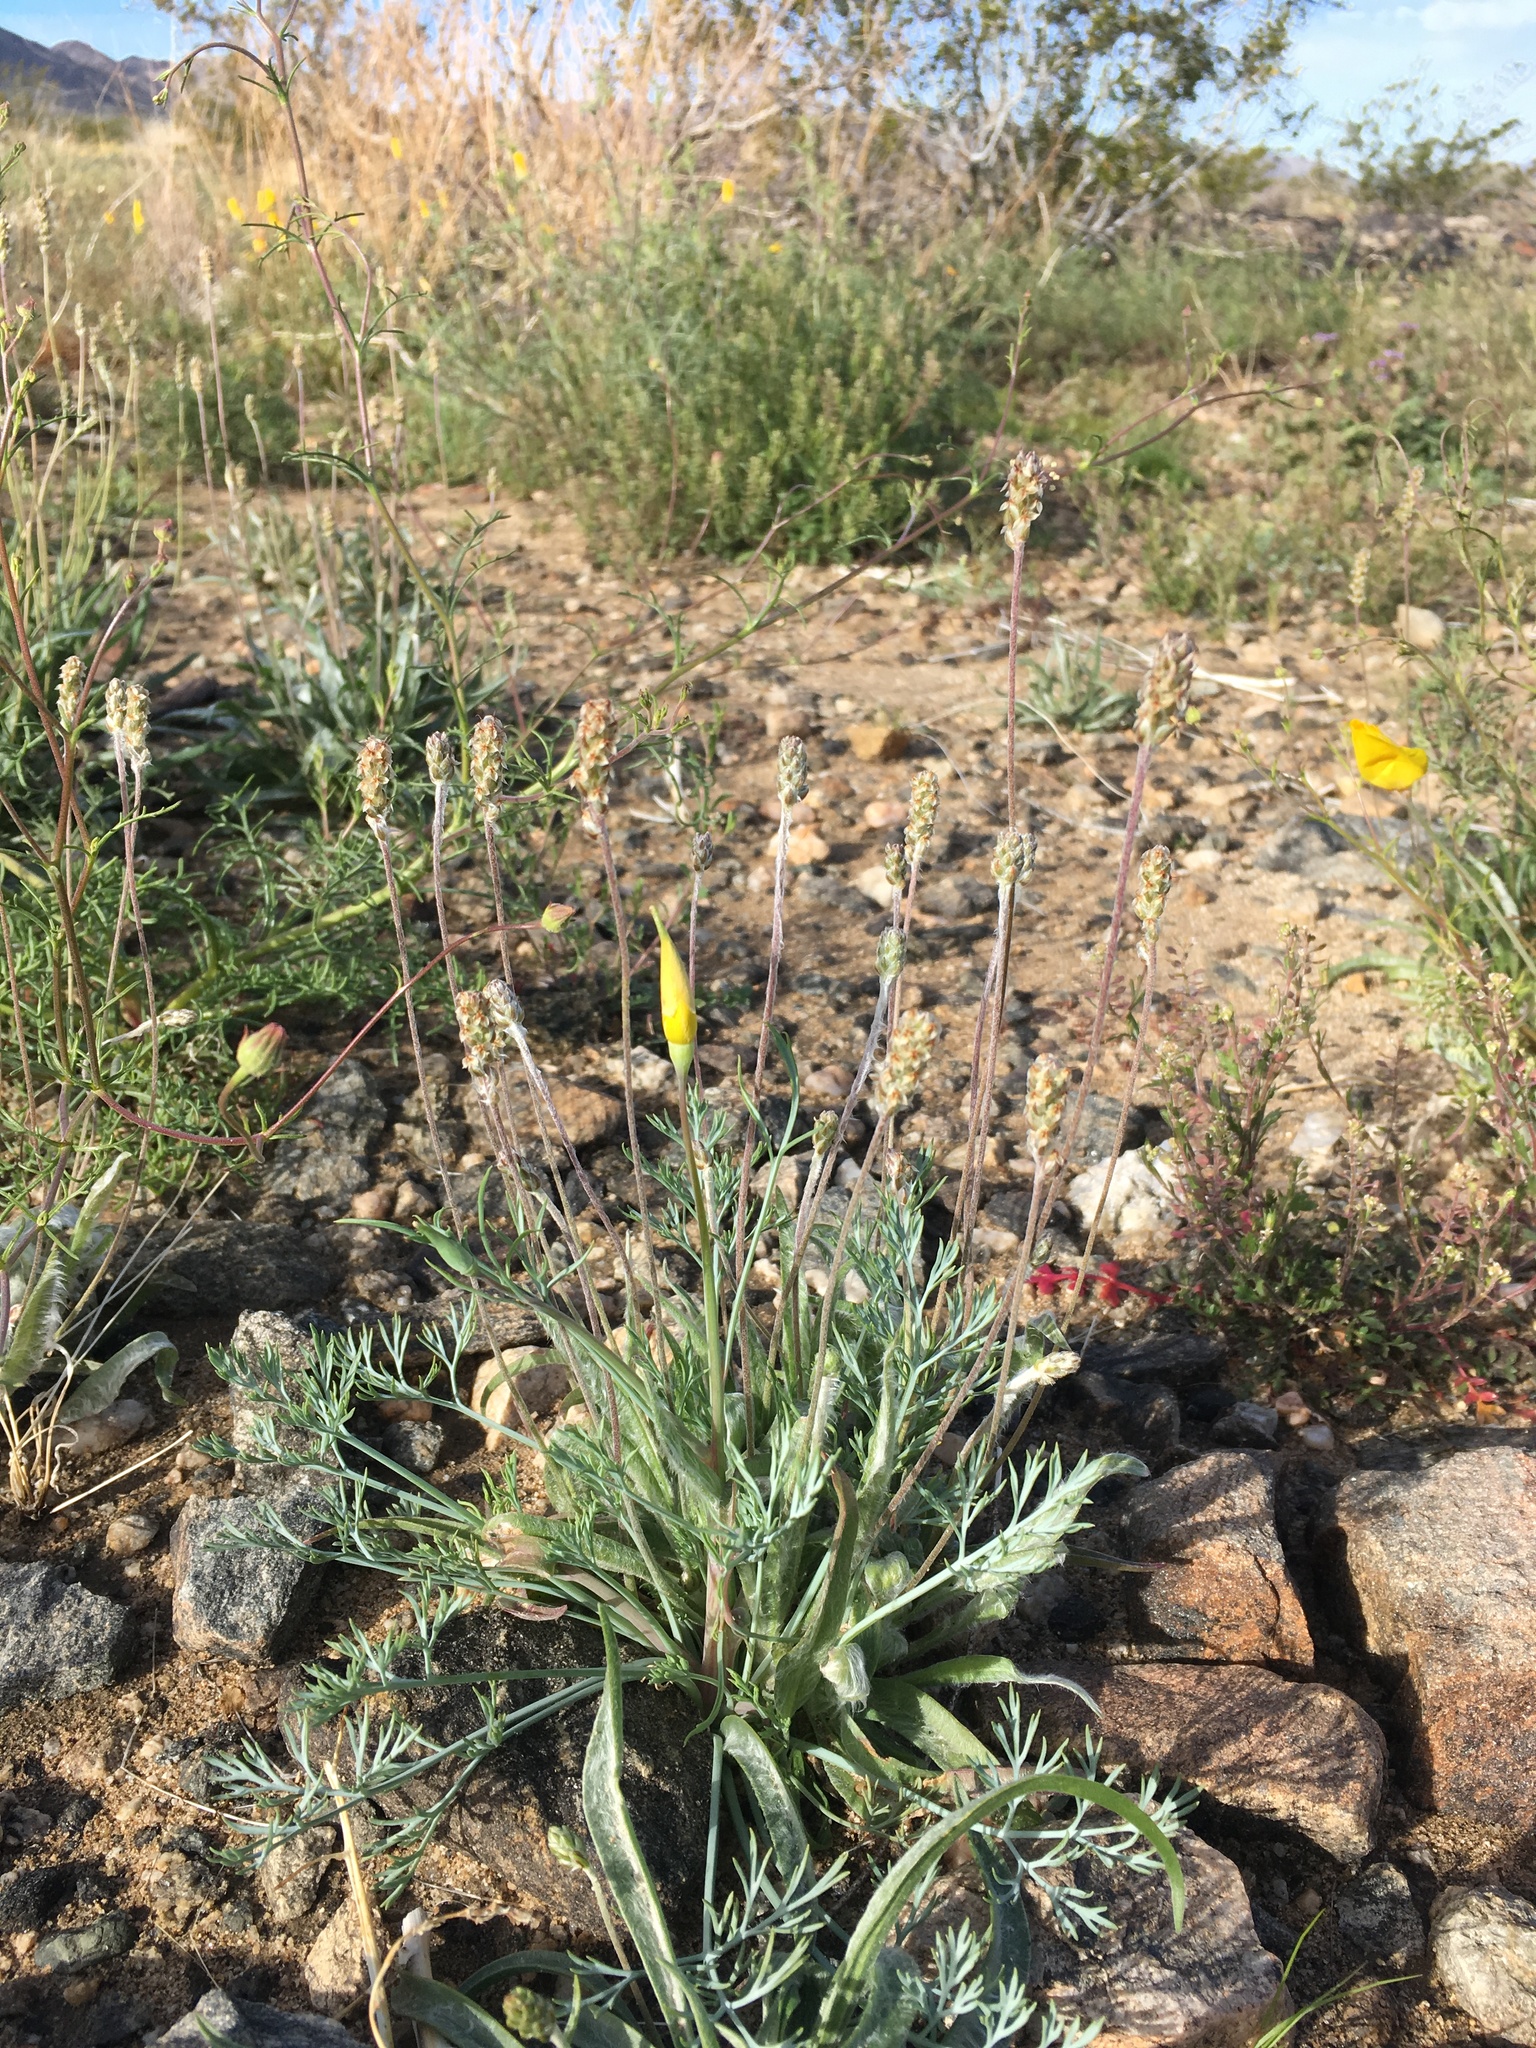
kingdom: Plantae
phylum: Tracheophyta
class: Magnoliopsida
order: Lamiales
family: Plantaginaceae
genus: Plantago
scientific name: Plantago ovata
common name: Blond plantain
